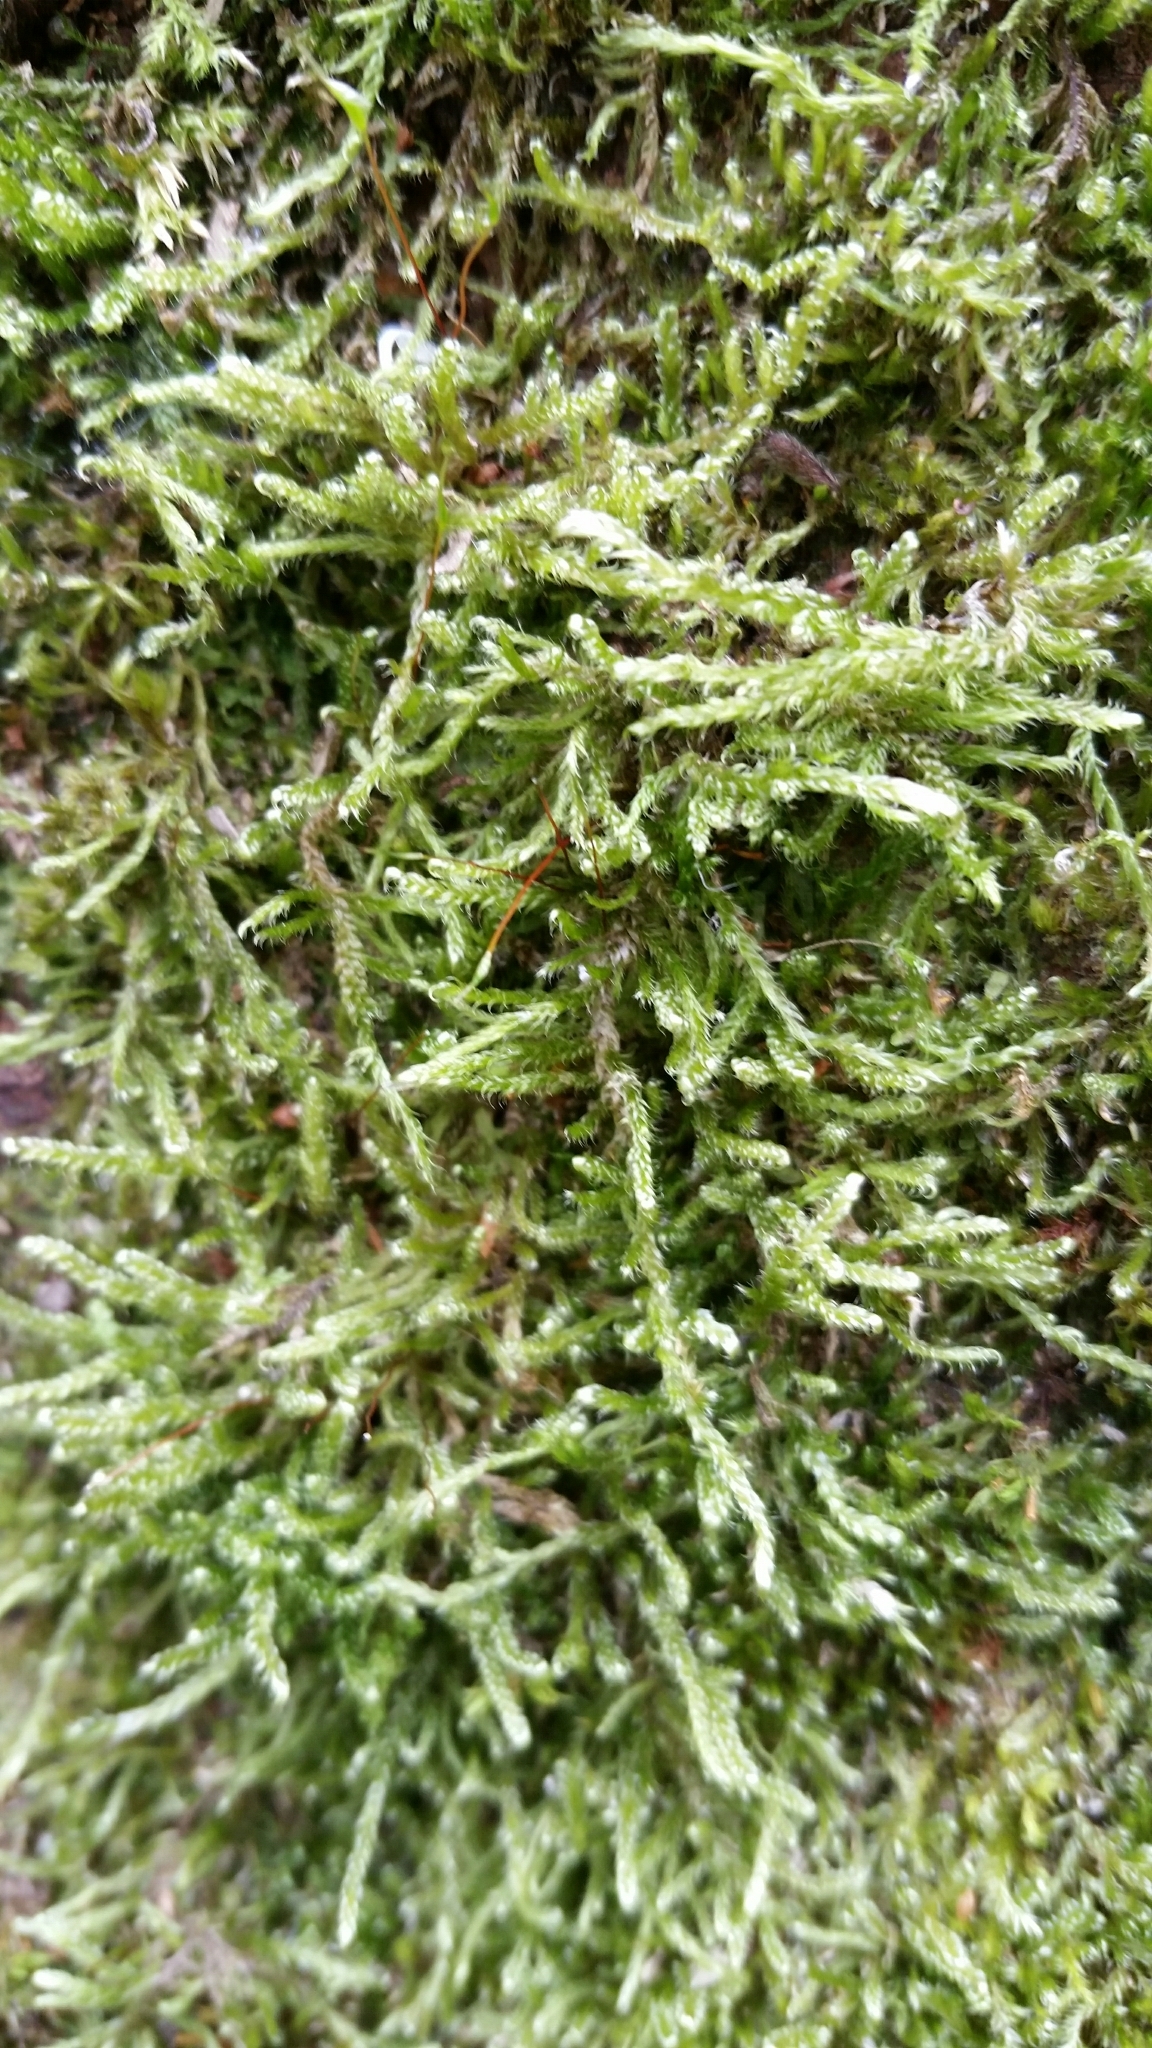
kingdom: Plantae
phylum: Bryophyta
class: Bryopsida
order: Hypnales
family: Hypnaceae
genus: Hypnum
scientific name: Hypnum cupressiforme
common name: Cypress-leaved plait-moss
